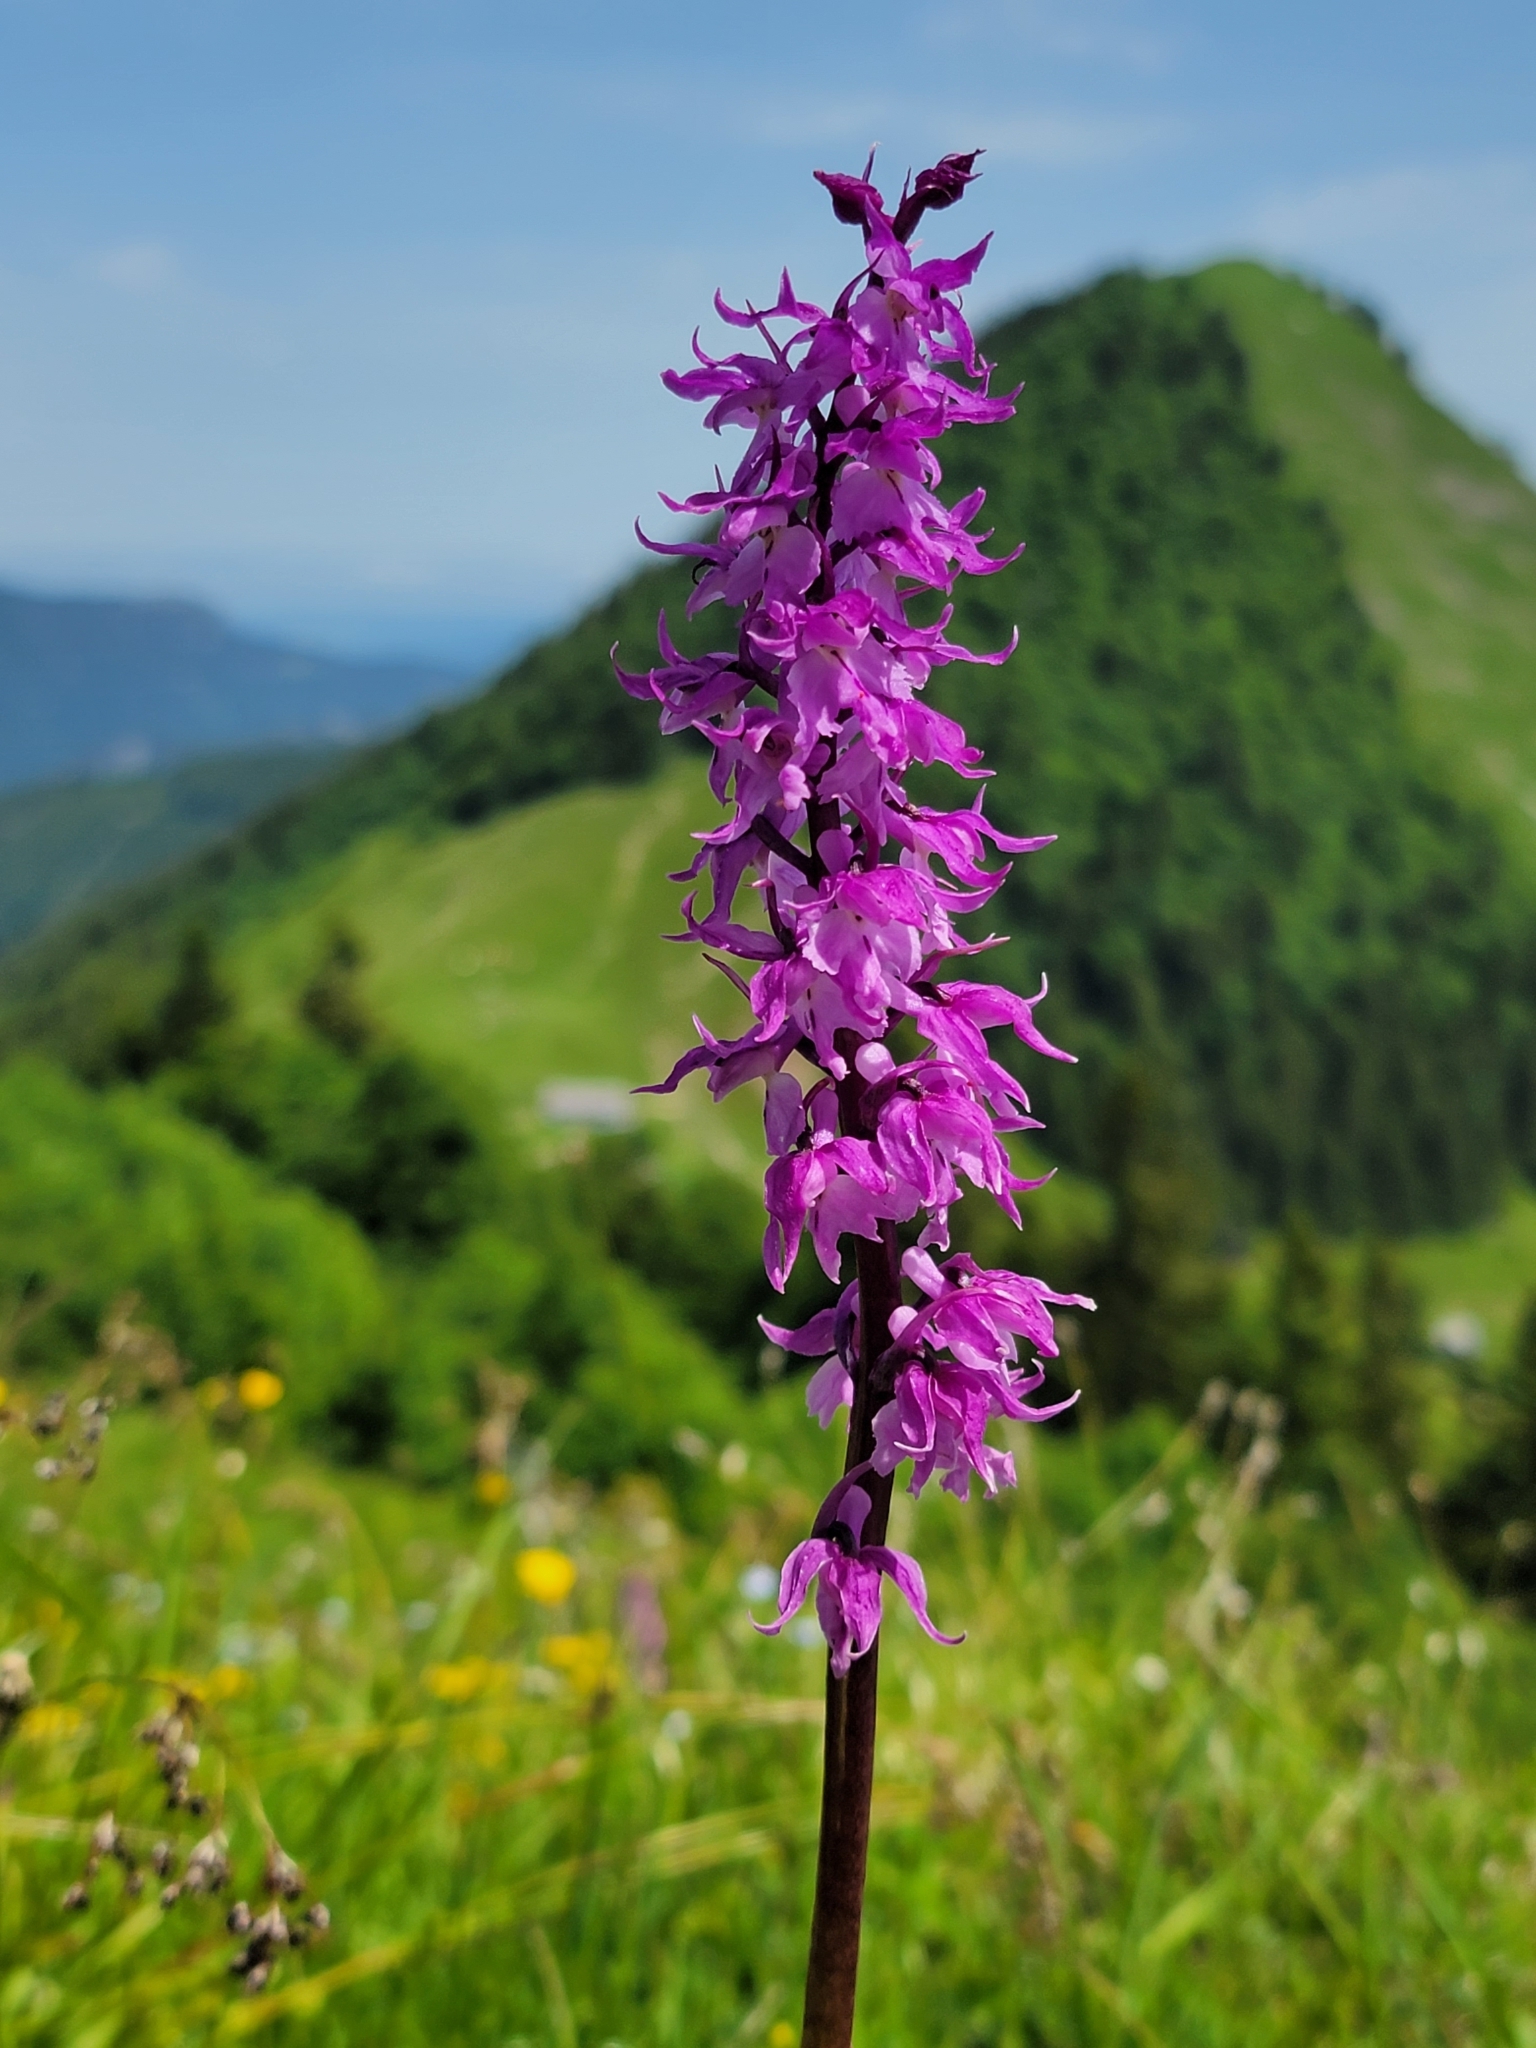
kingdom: Plantae
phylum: Tracheophyta
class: Liliopsida
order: Asparagales
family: Orchidaceae
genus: Orchis
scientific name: Orchis mascula
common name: Early-purple orchid
